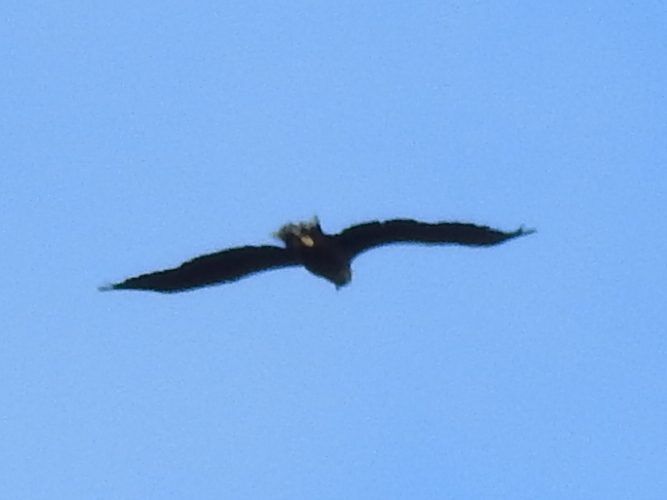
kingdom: Animalia
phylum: Chordata
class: Aves
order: Accipitriformes
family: Accipitridae
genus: Haliaeetus
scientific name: Haliaeetus albicilla
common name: White-tailed eagle
